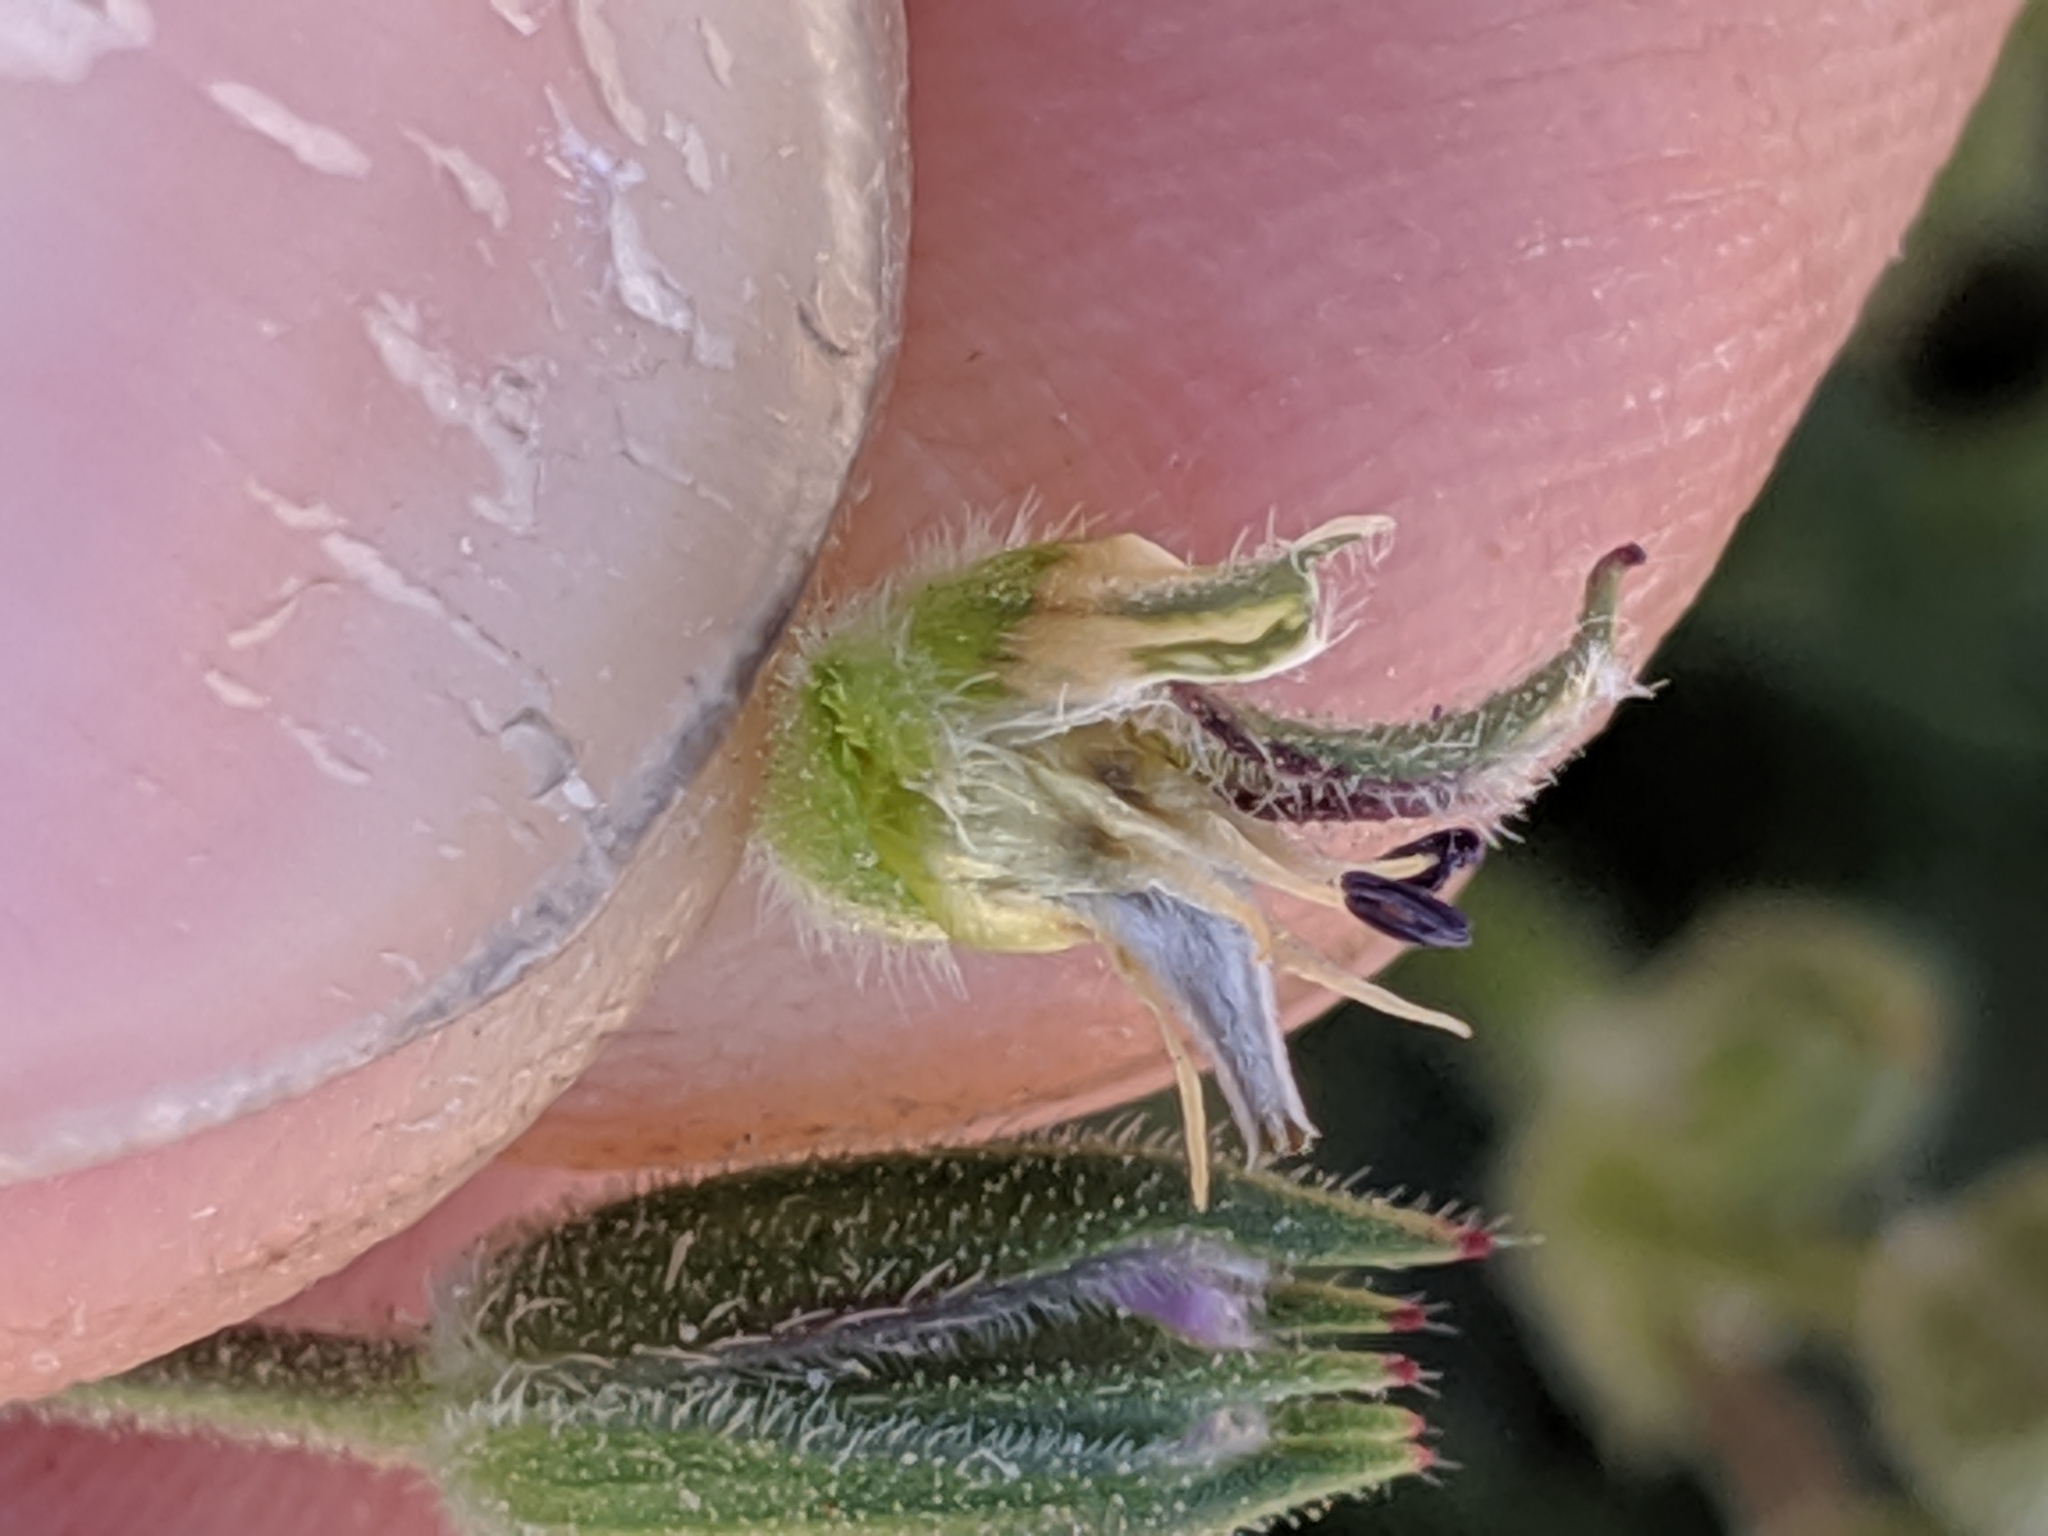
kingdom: Plantae
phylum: Tracheophyta
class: Magnoliopsida
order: Geraniales
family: Geraniaceae
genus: Erodium
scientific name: Erodium botrys
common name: Mediterranean stork's-bill
